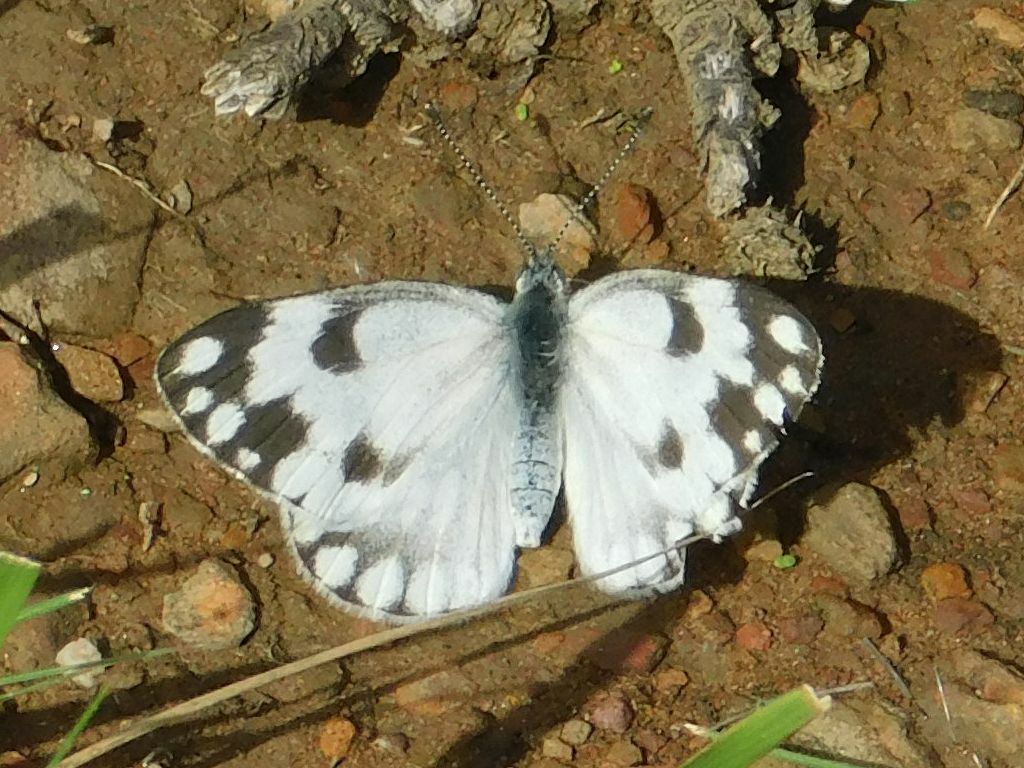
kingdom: Animalia
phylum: Arthropoda
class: Insecta
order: Lepidoptera
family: Pieridae
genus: Pontia
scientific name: Pontia helice
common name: Meadow white
